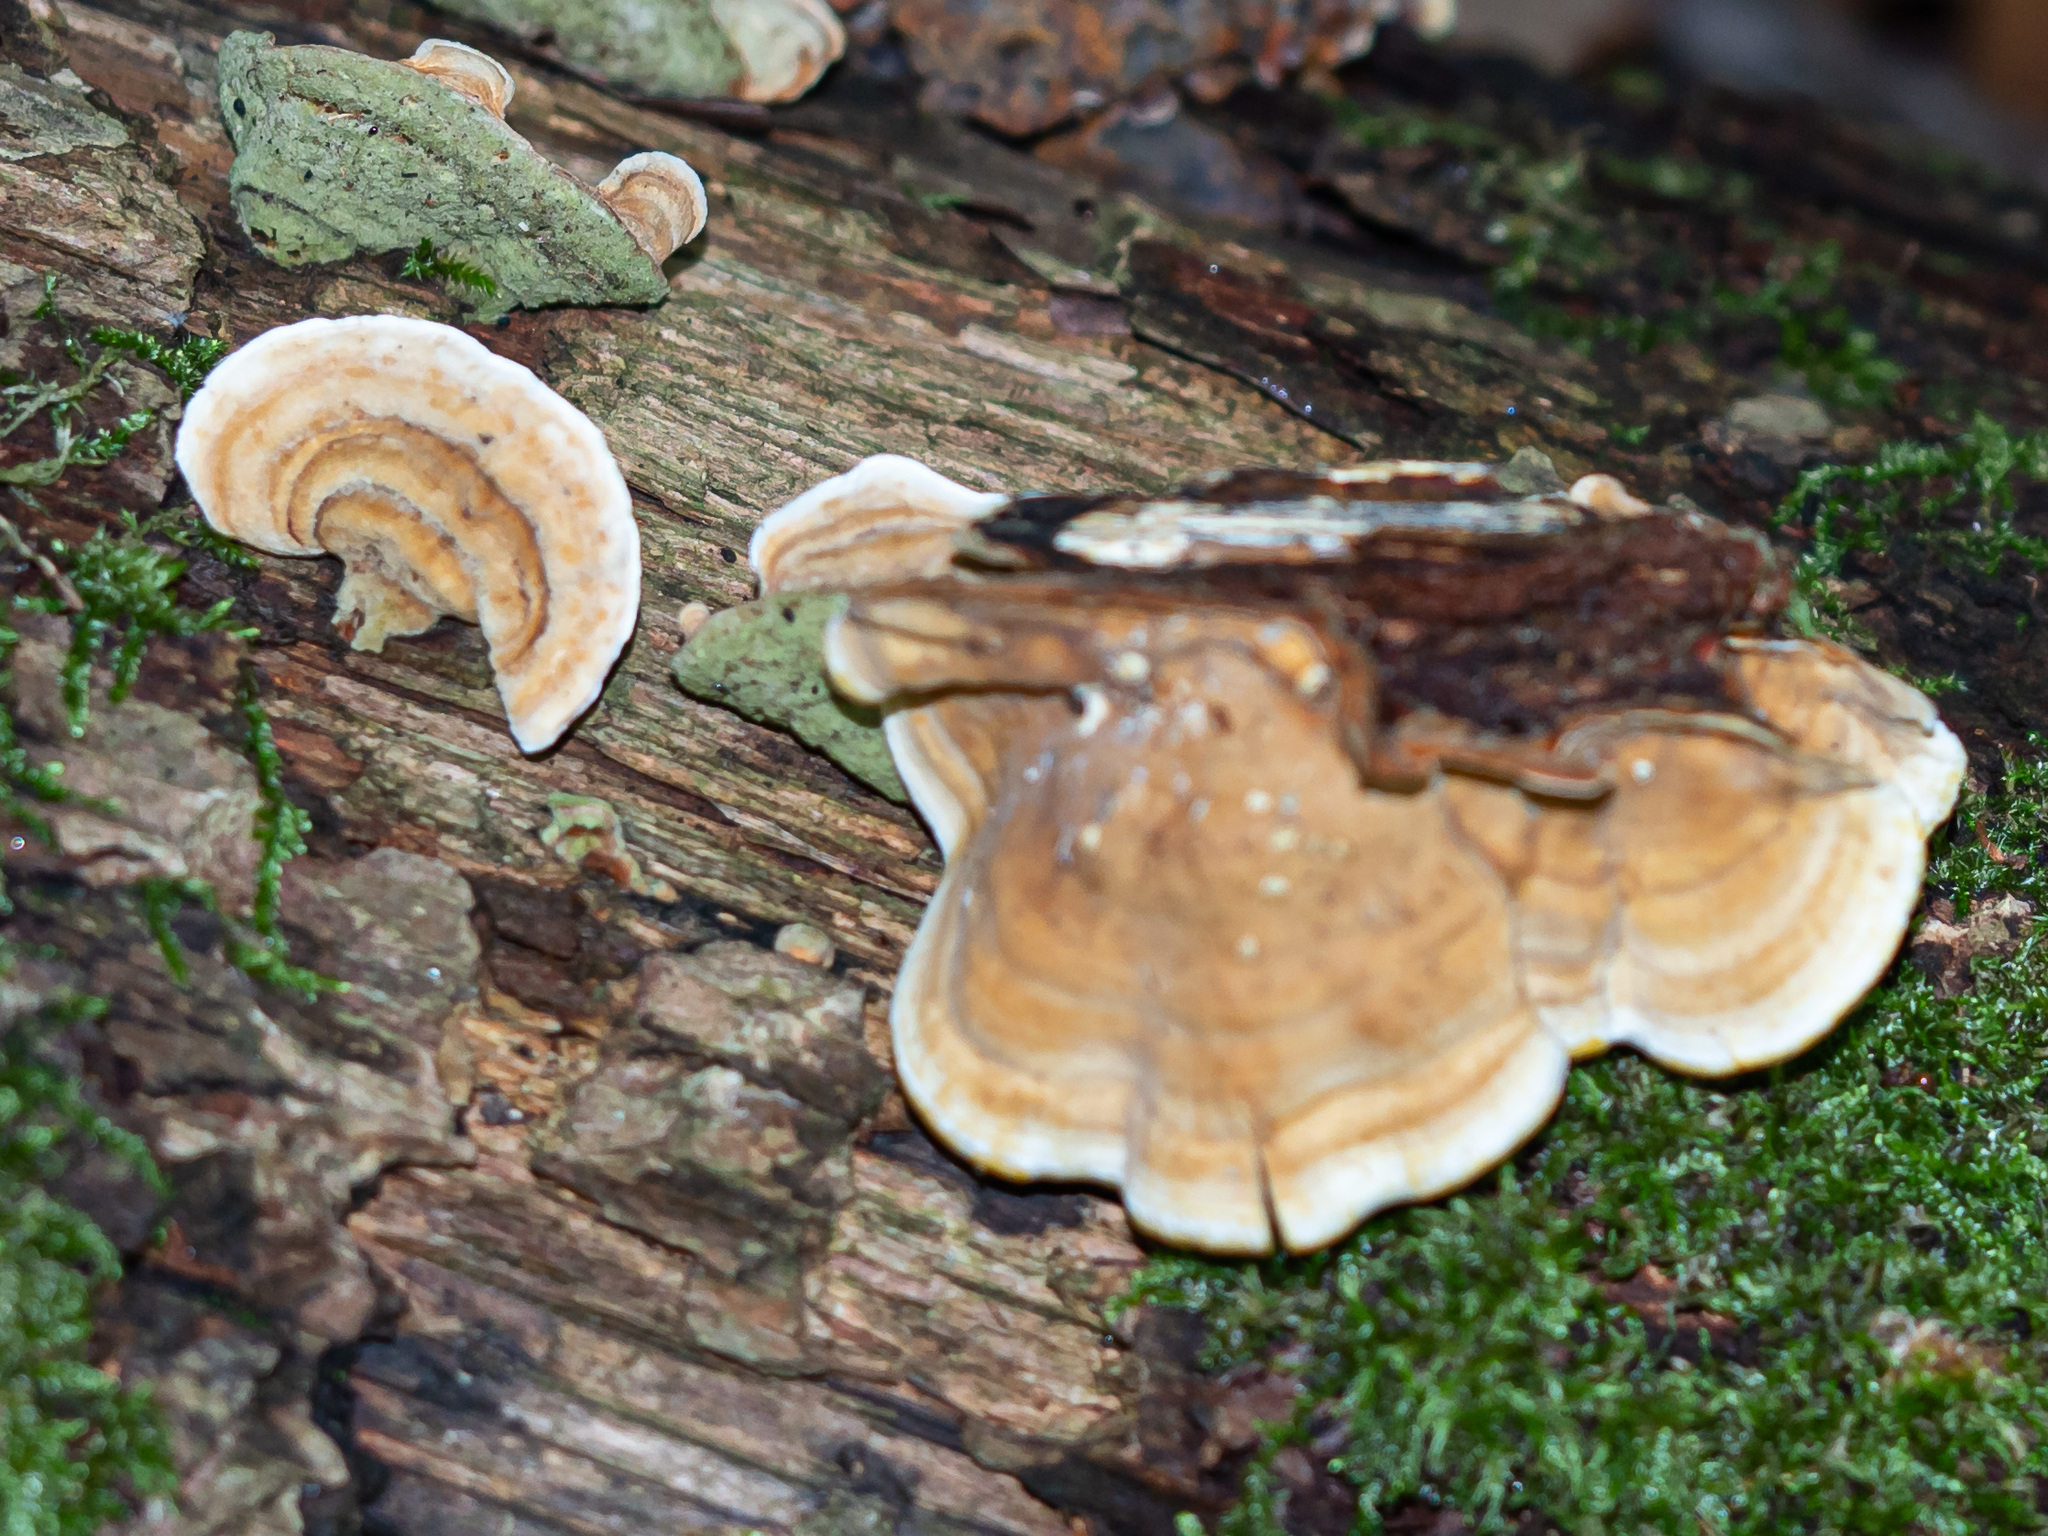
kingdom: Fungi
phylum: Basidiomycota
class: Agaricomycetes
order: Russulales
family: Stereaceae
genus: Stereum
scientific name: Stereum subtomentosum
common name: Yellowing curtain crust
